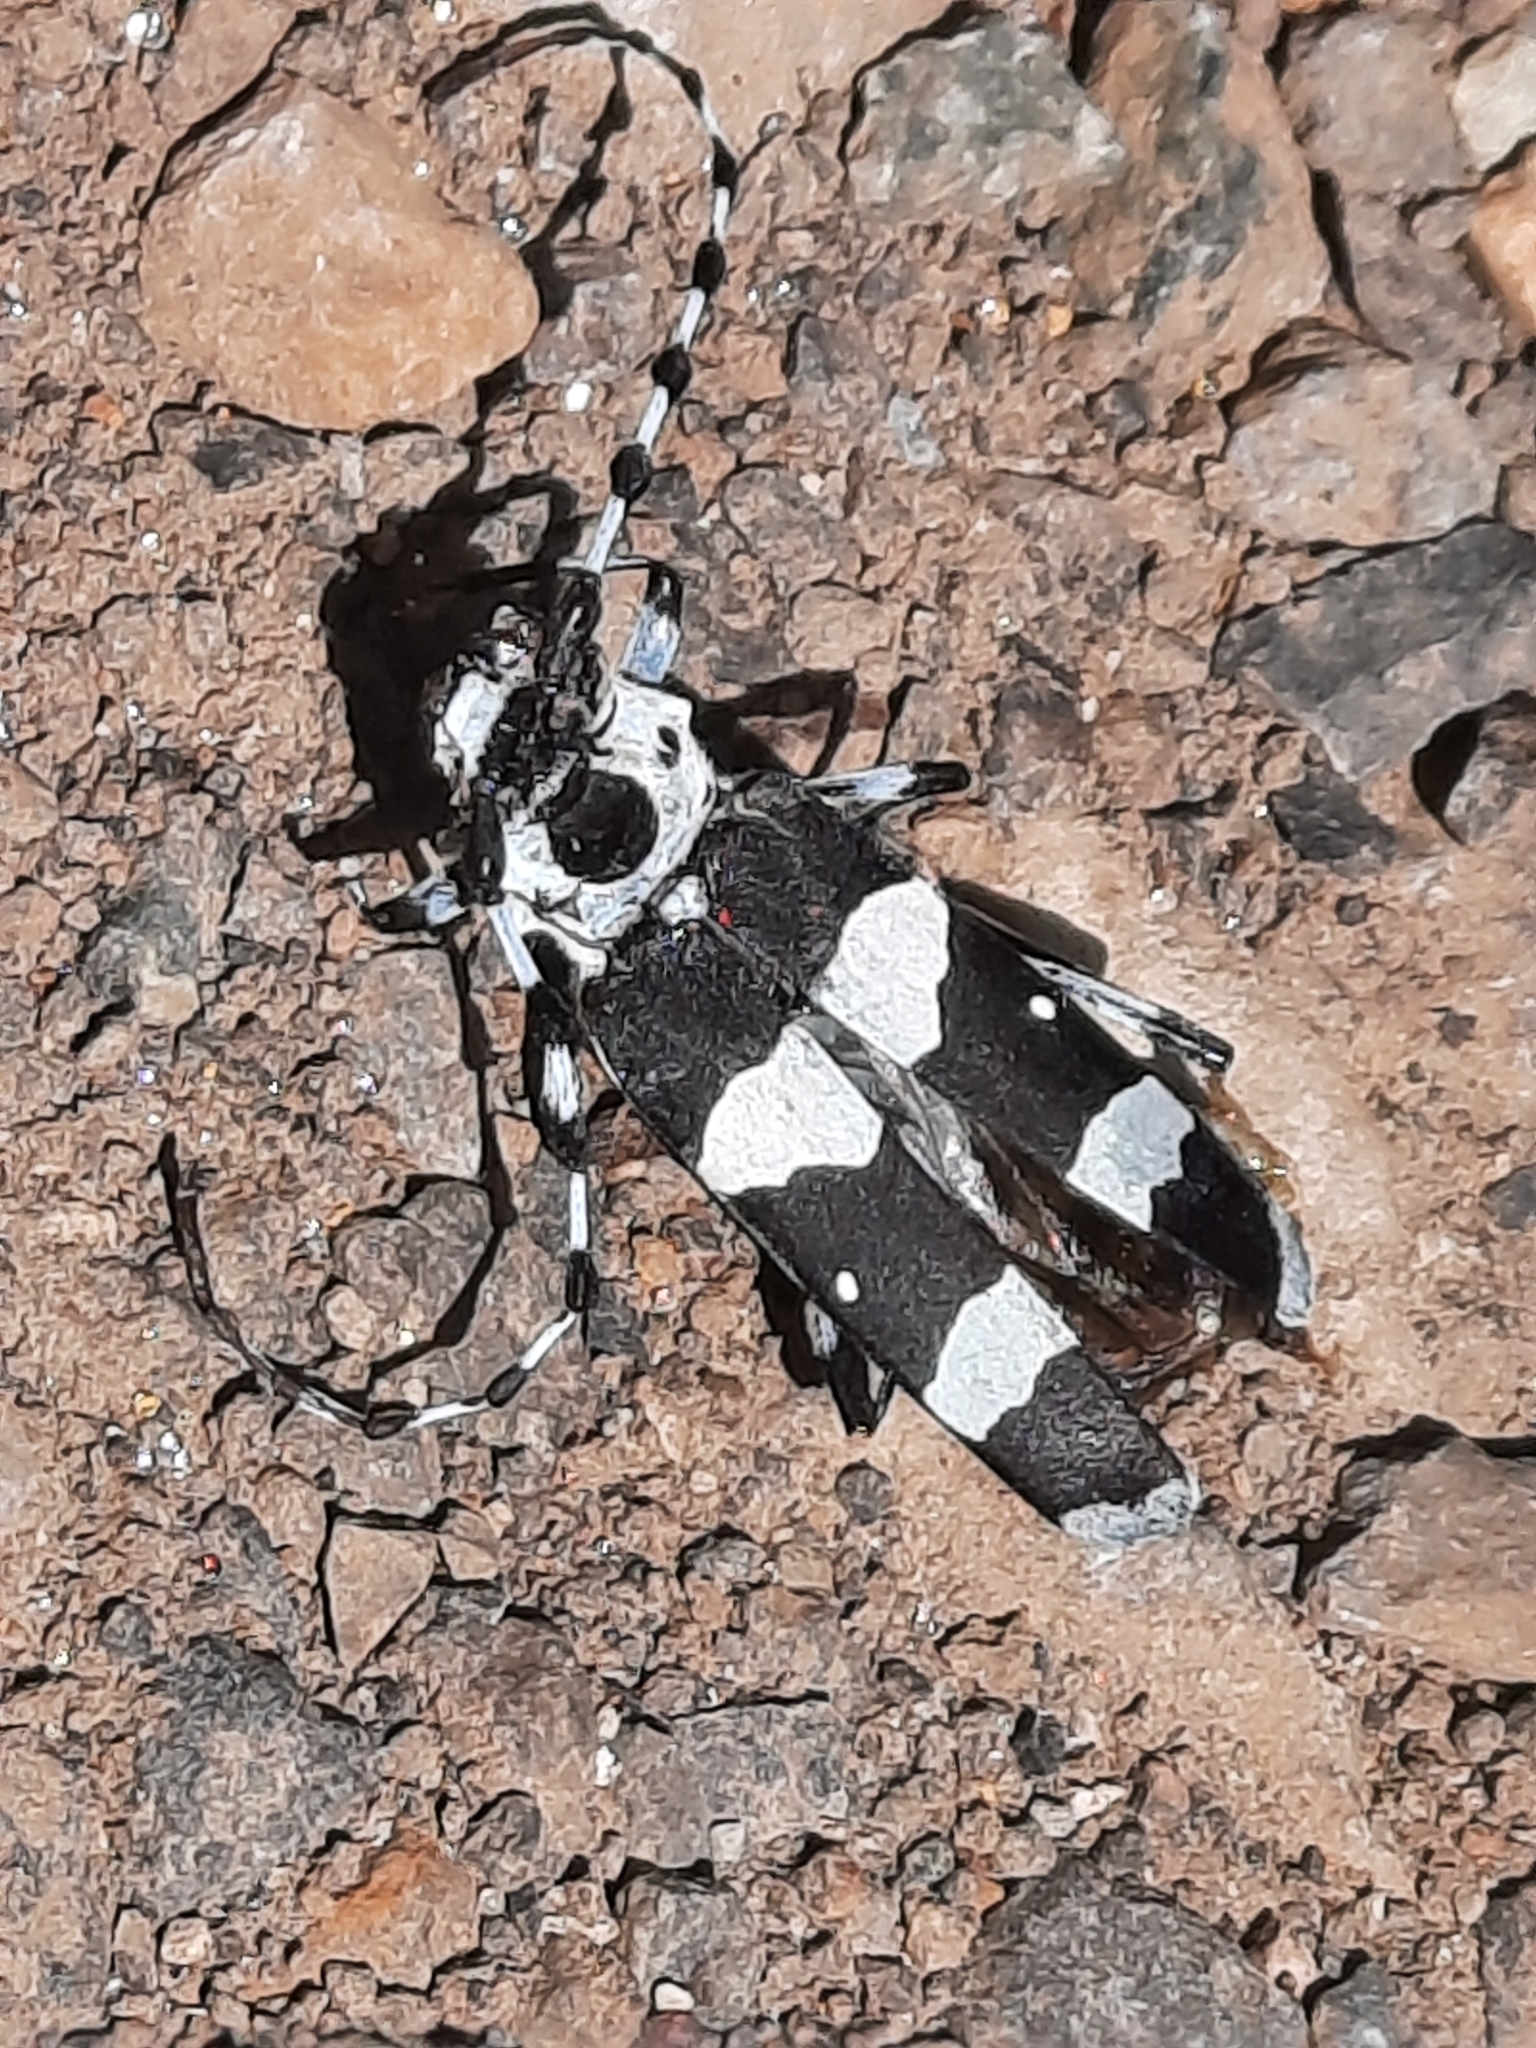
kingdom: Animalia
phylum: Arthropoda
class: Insecta
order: Coleoptera
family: Cerambycidae
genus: Rosalia
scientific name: Rosalia funebris
